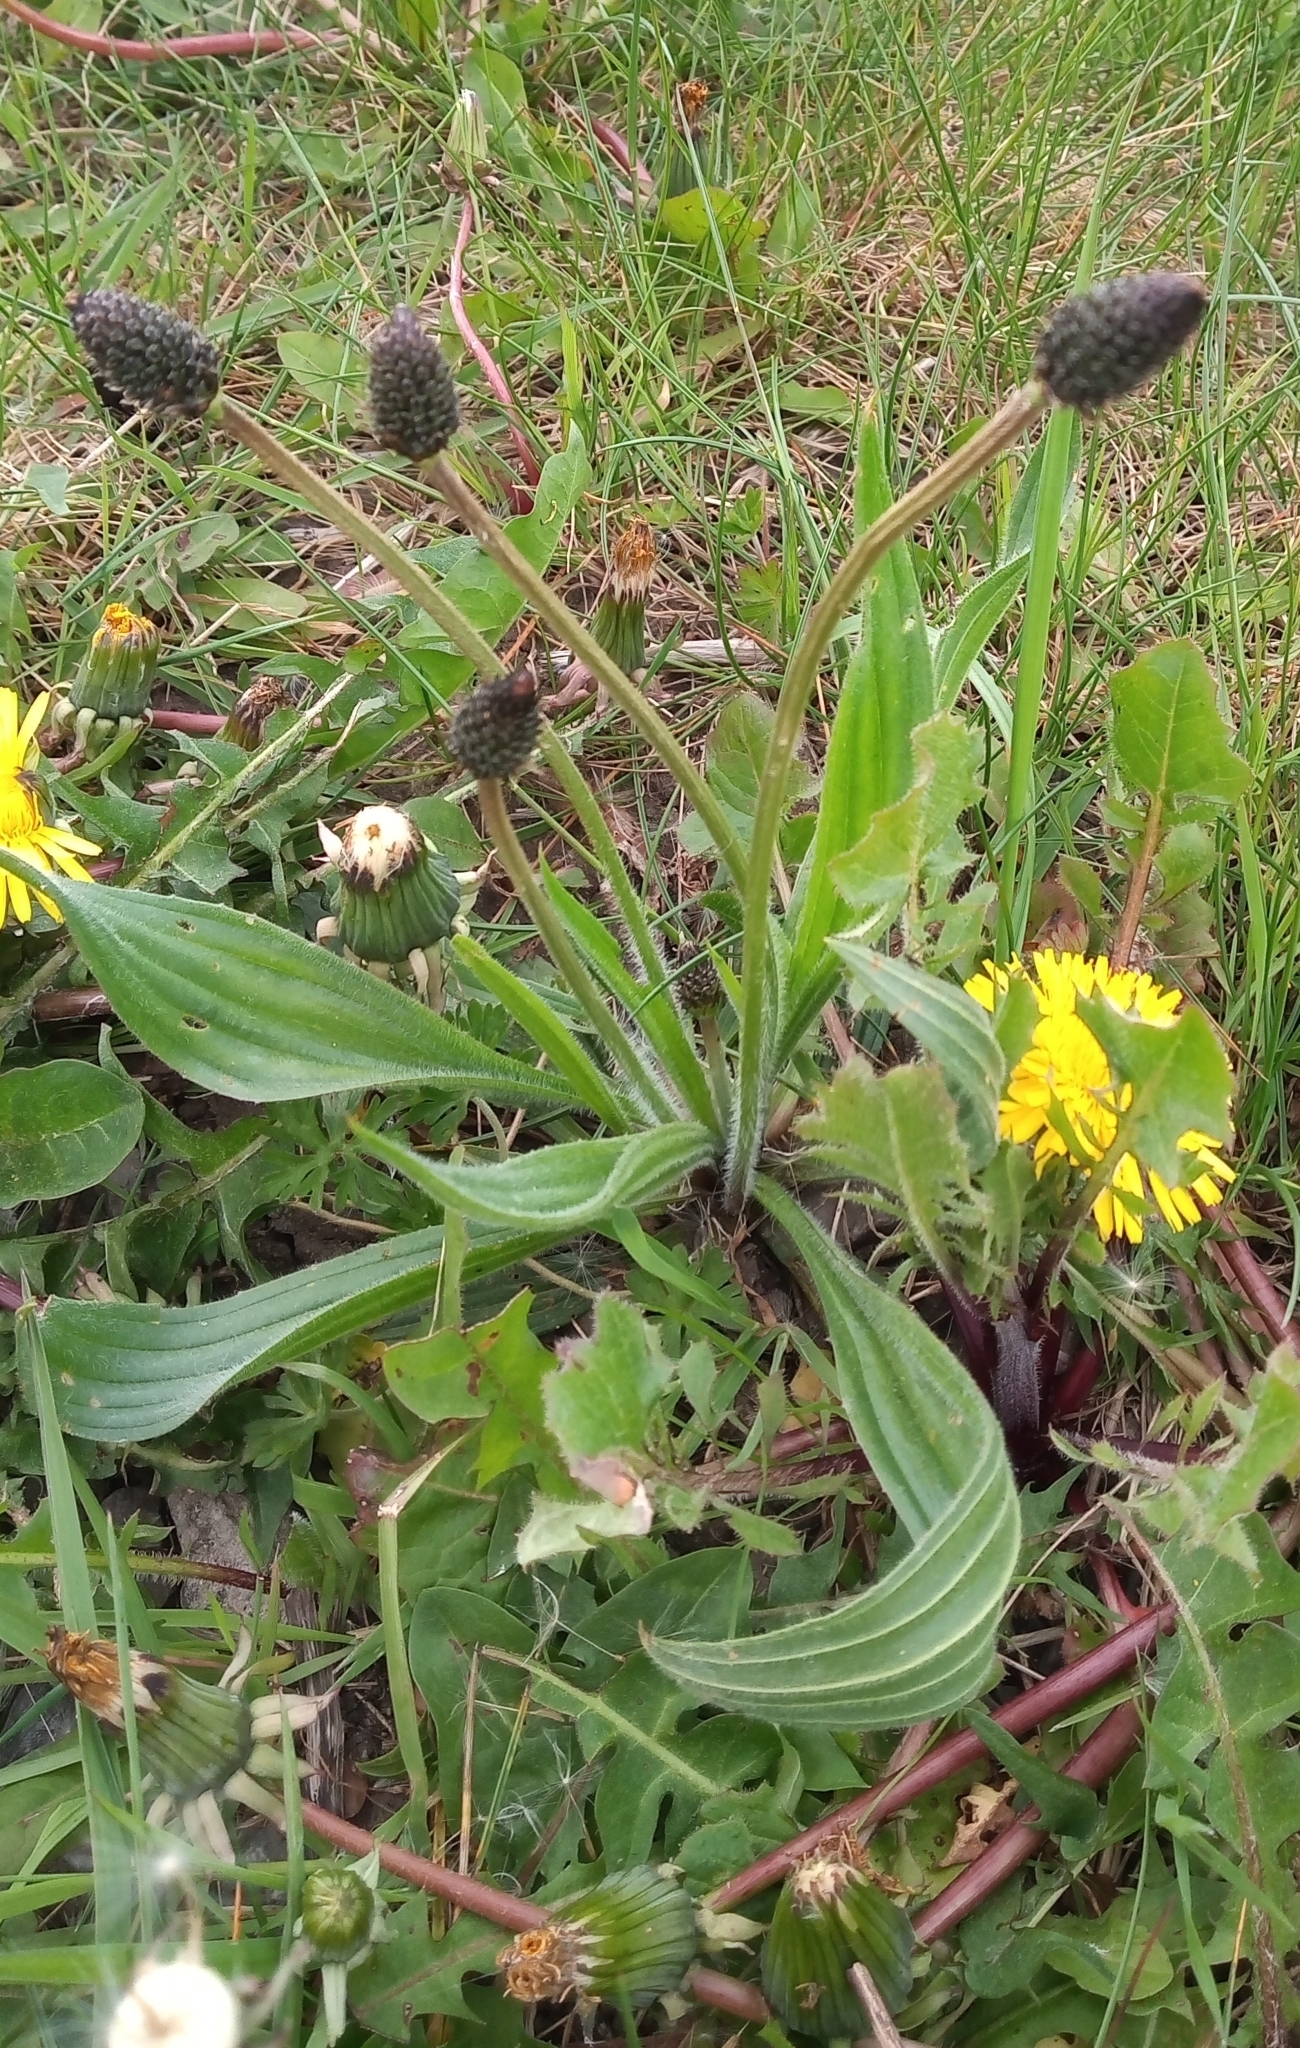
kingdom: Plantae
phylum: Tracheophyta
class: Magnoliopsida
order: Lamiales
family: Plantaginaceae
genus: Plantago
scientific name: Plantago lanceolata
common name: Ribwort plantain
